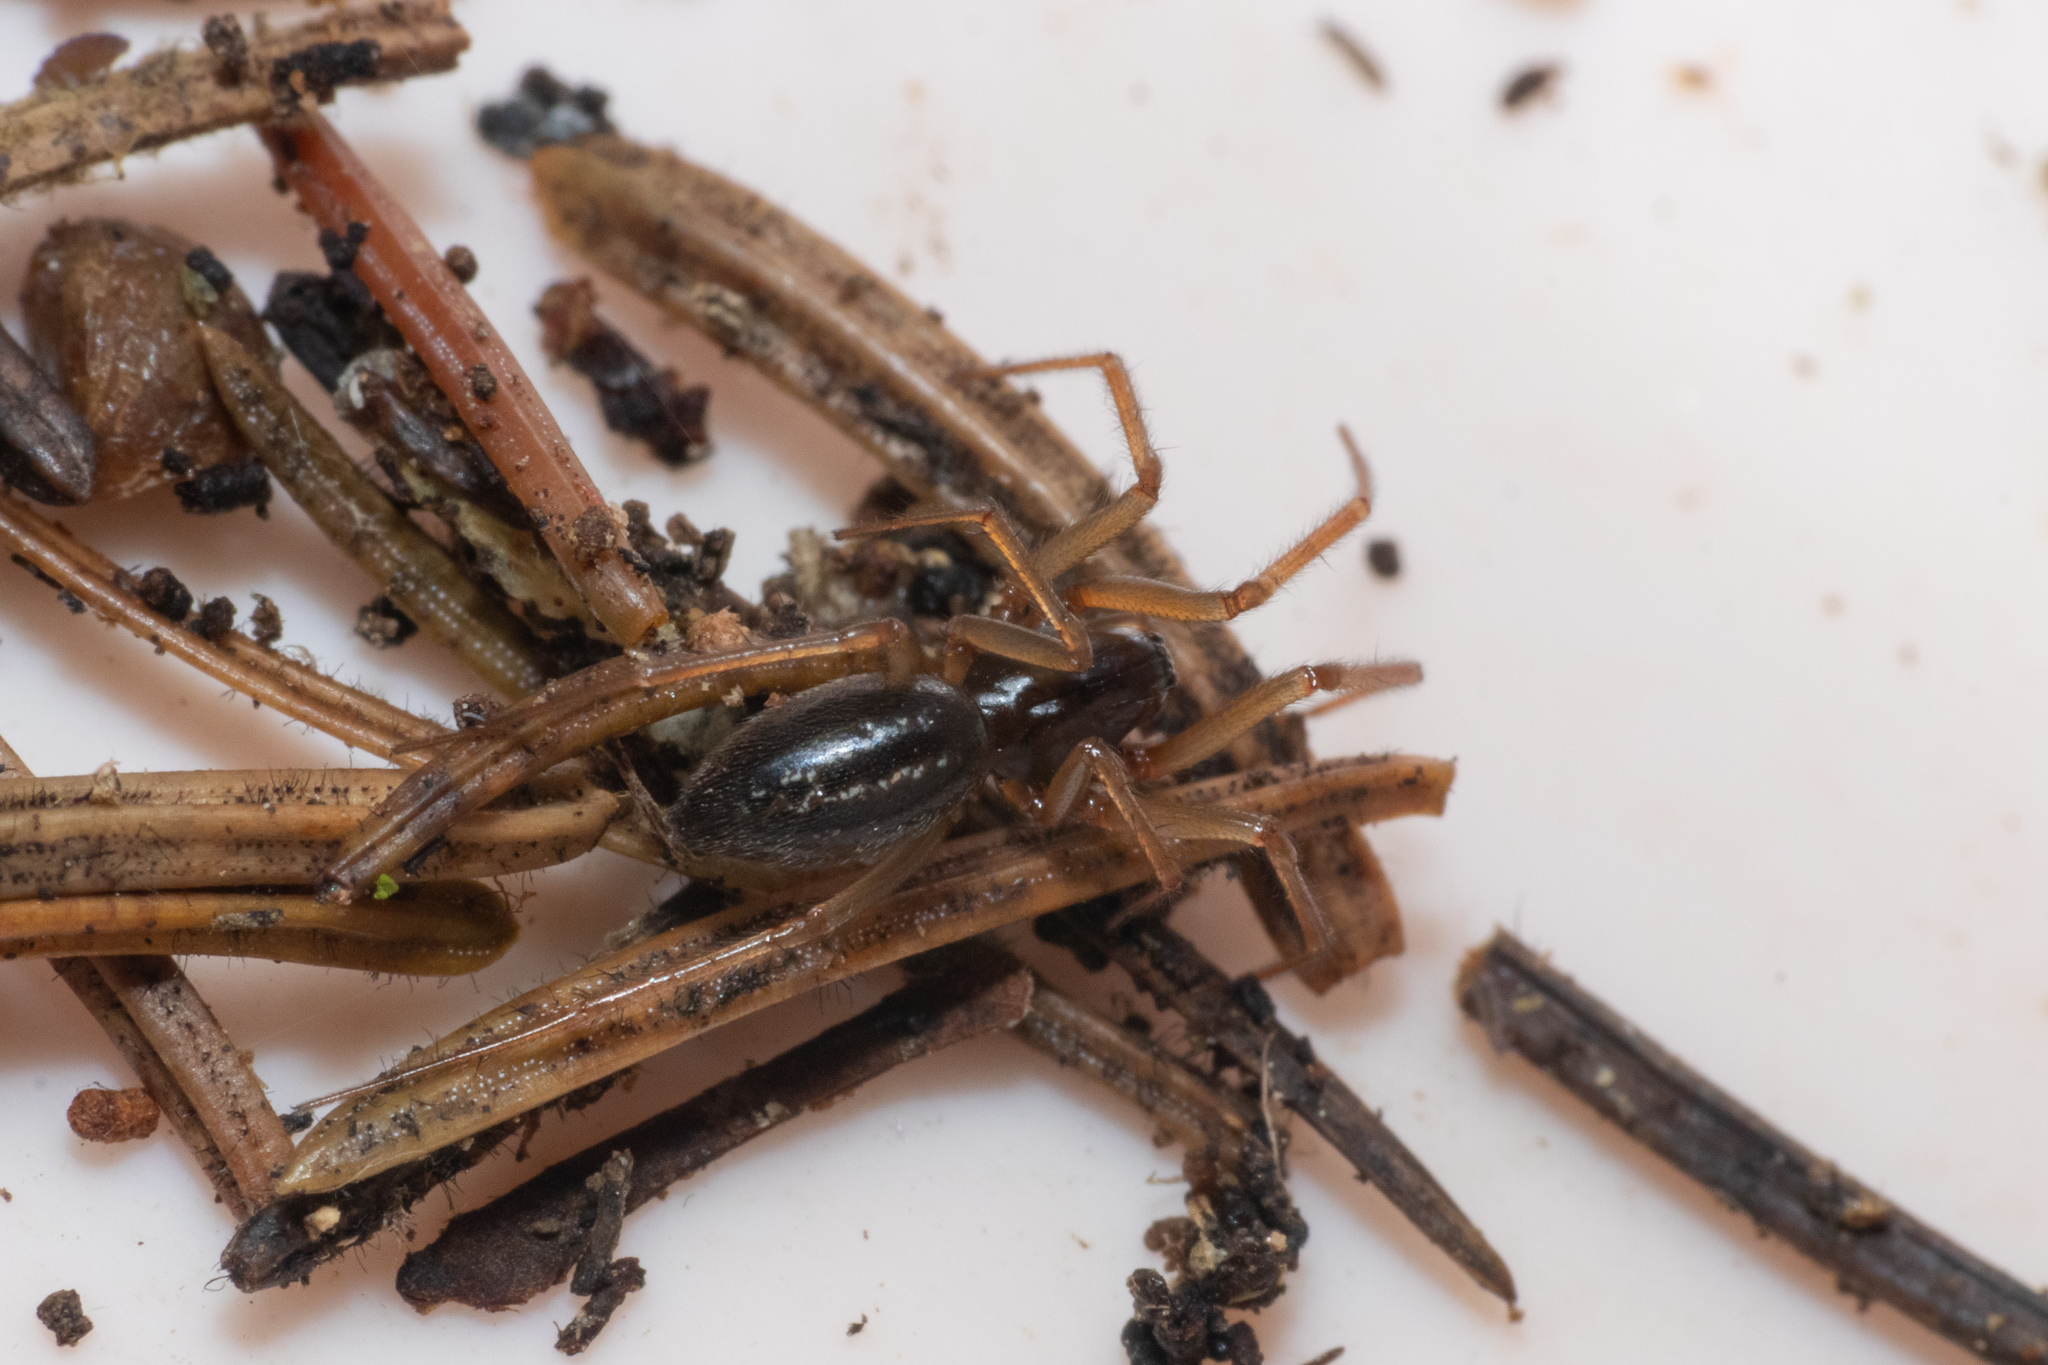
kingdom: Animalia
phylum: Arthropoda
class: Arachnida
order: Araneae
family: Linyphiidae
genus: Diplocephalus
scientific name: Diplocephalus cristatus
